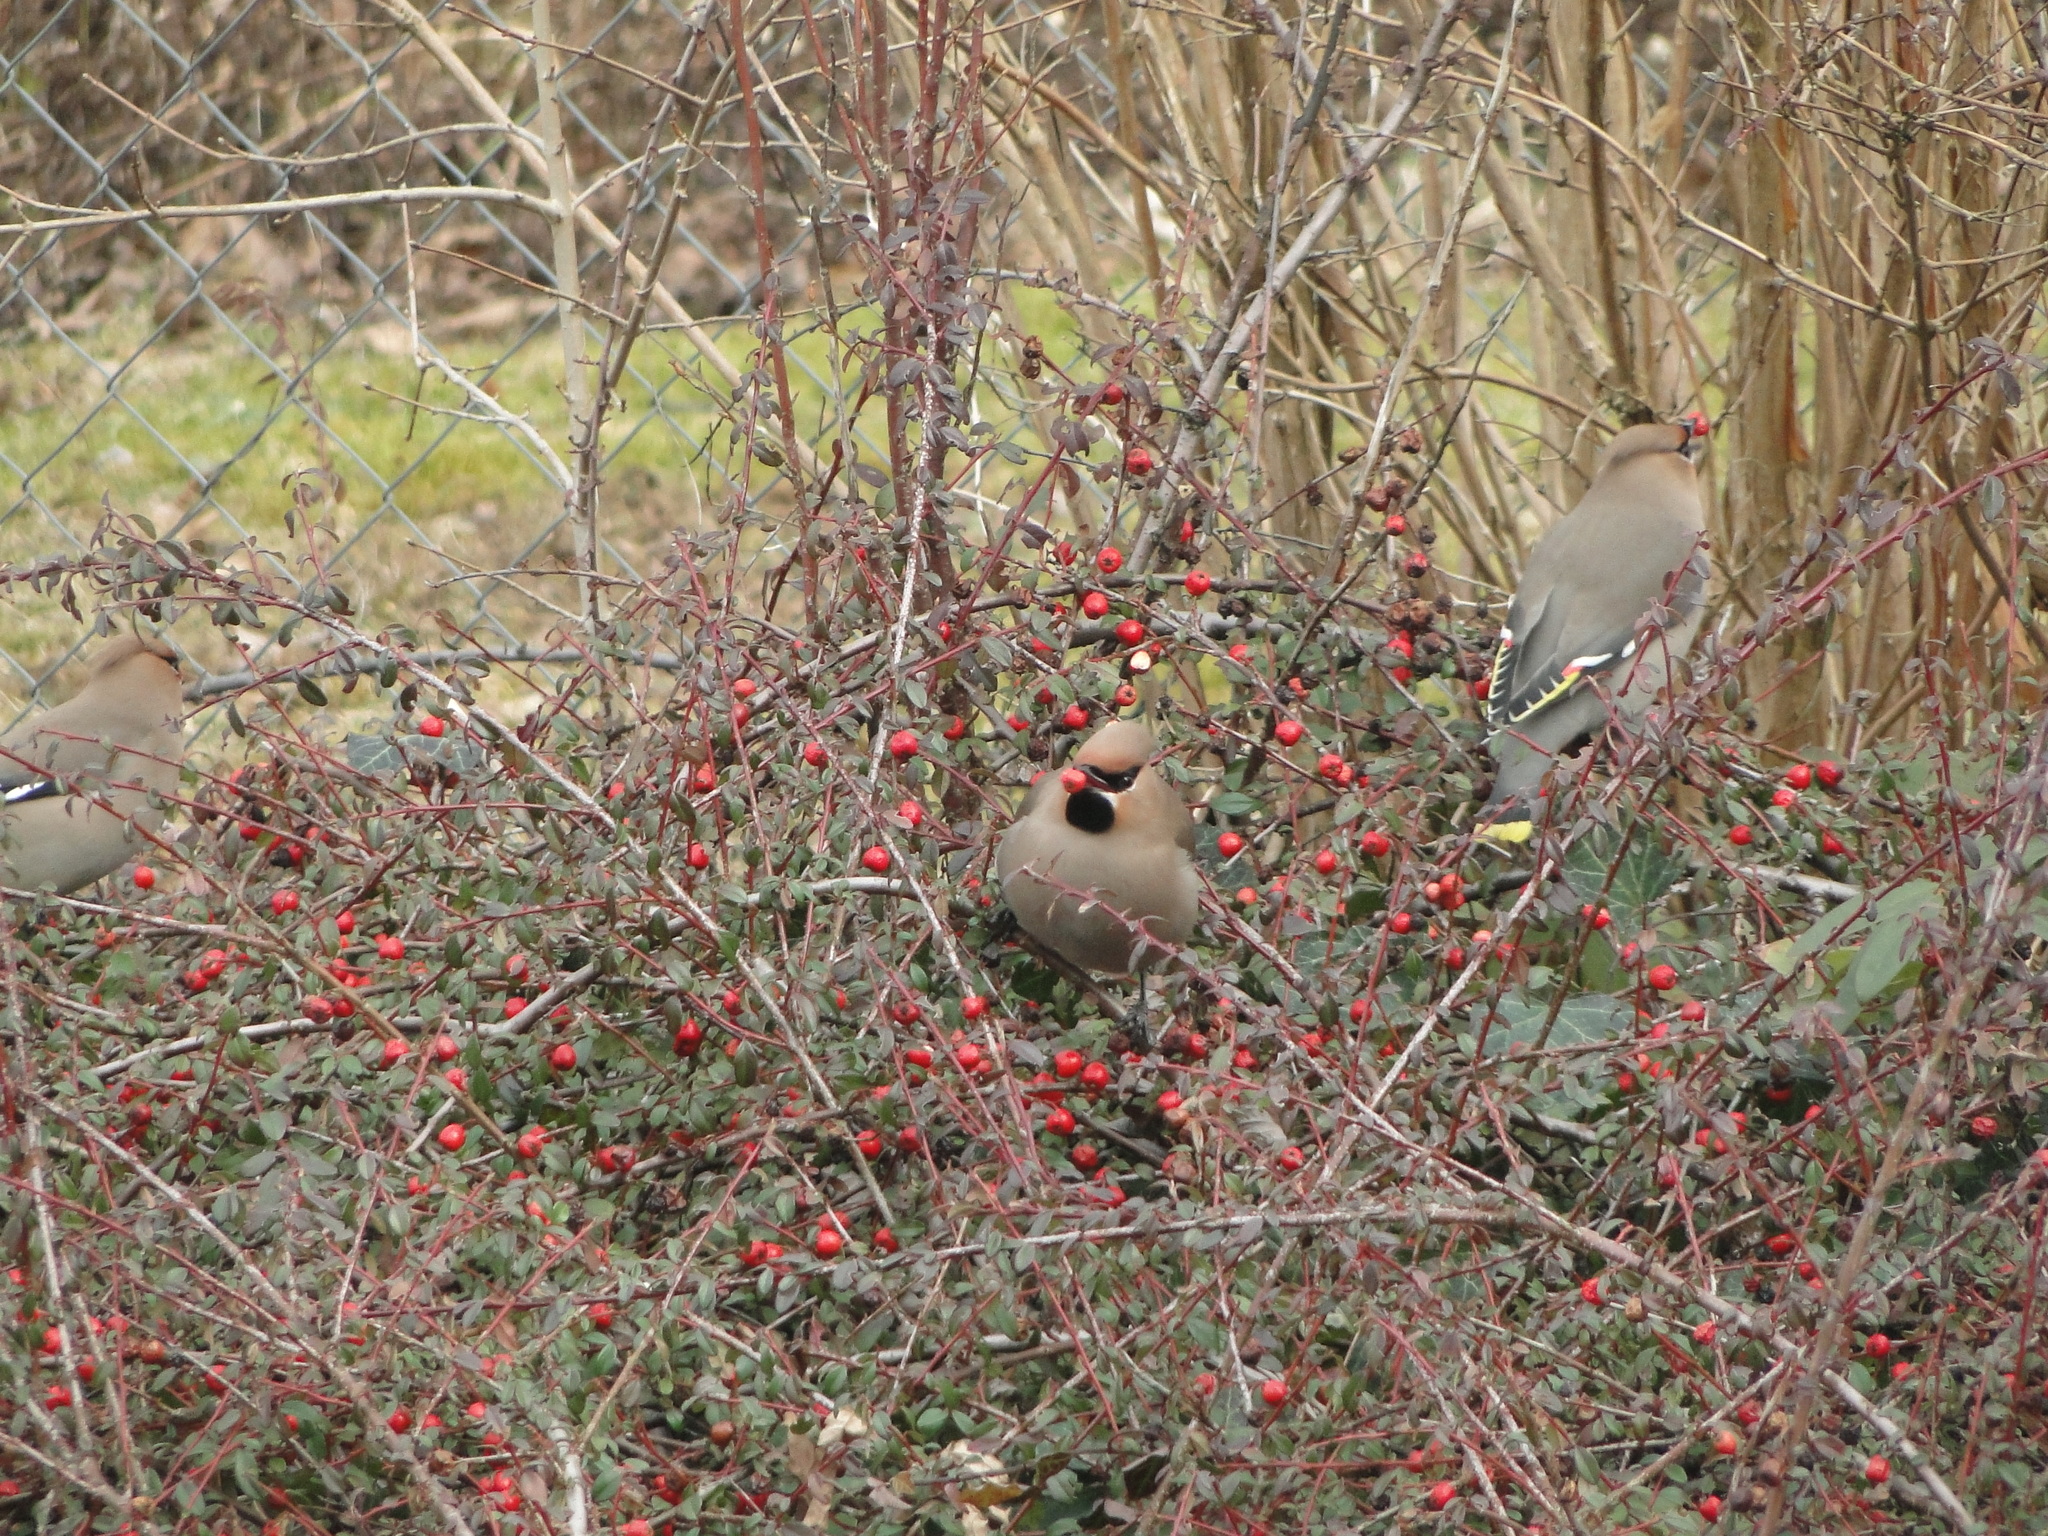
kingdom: Animalia
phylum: Chordata
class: Aves
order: Passeriformes
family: Bombycillidae
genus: Bombycilla
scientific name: Bombycilla garrulus
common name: Bohemian waxwing
